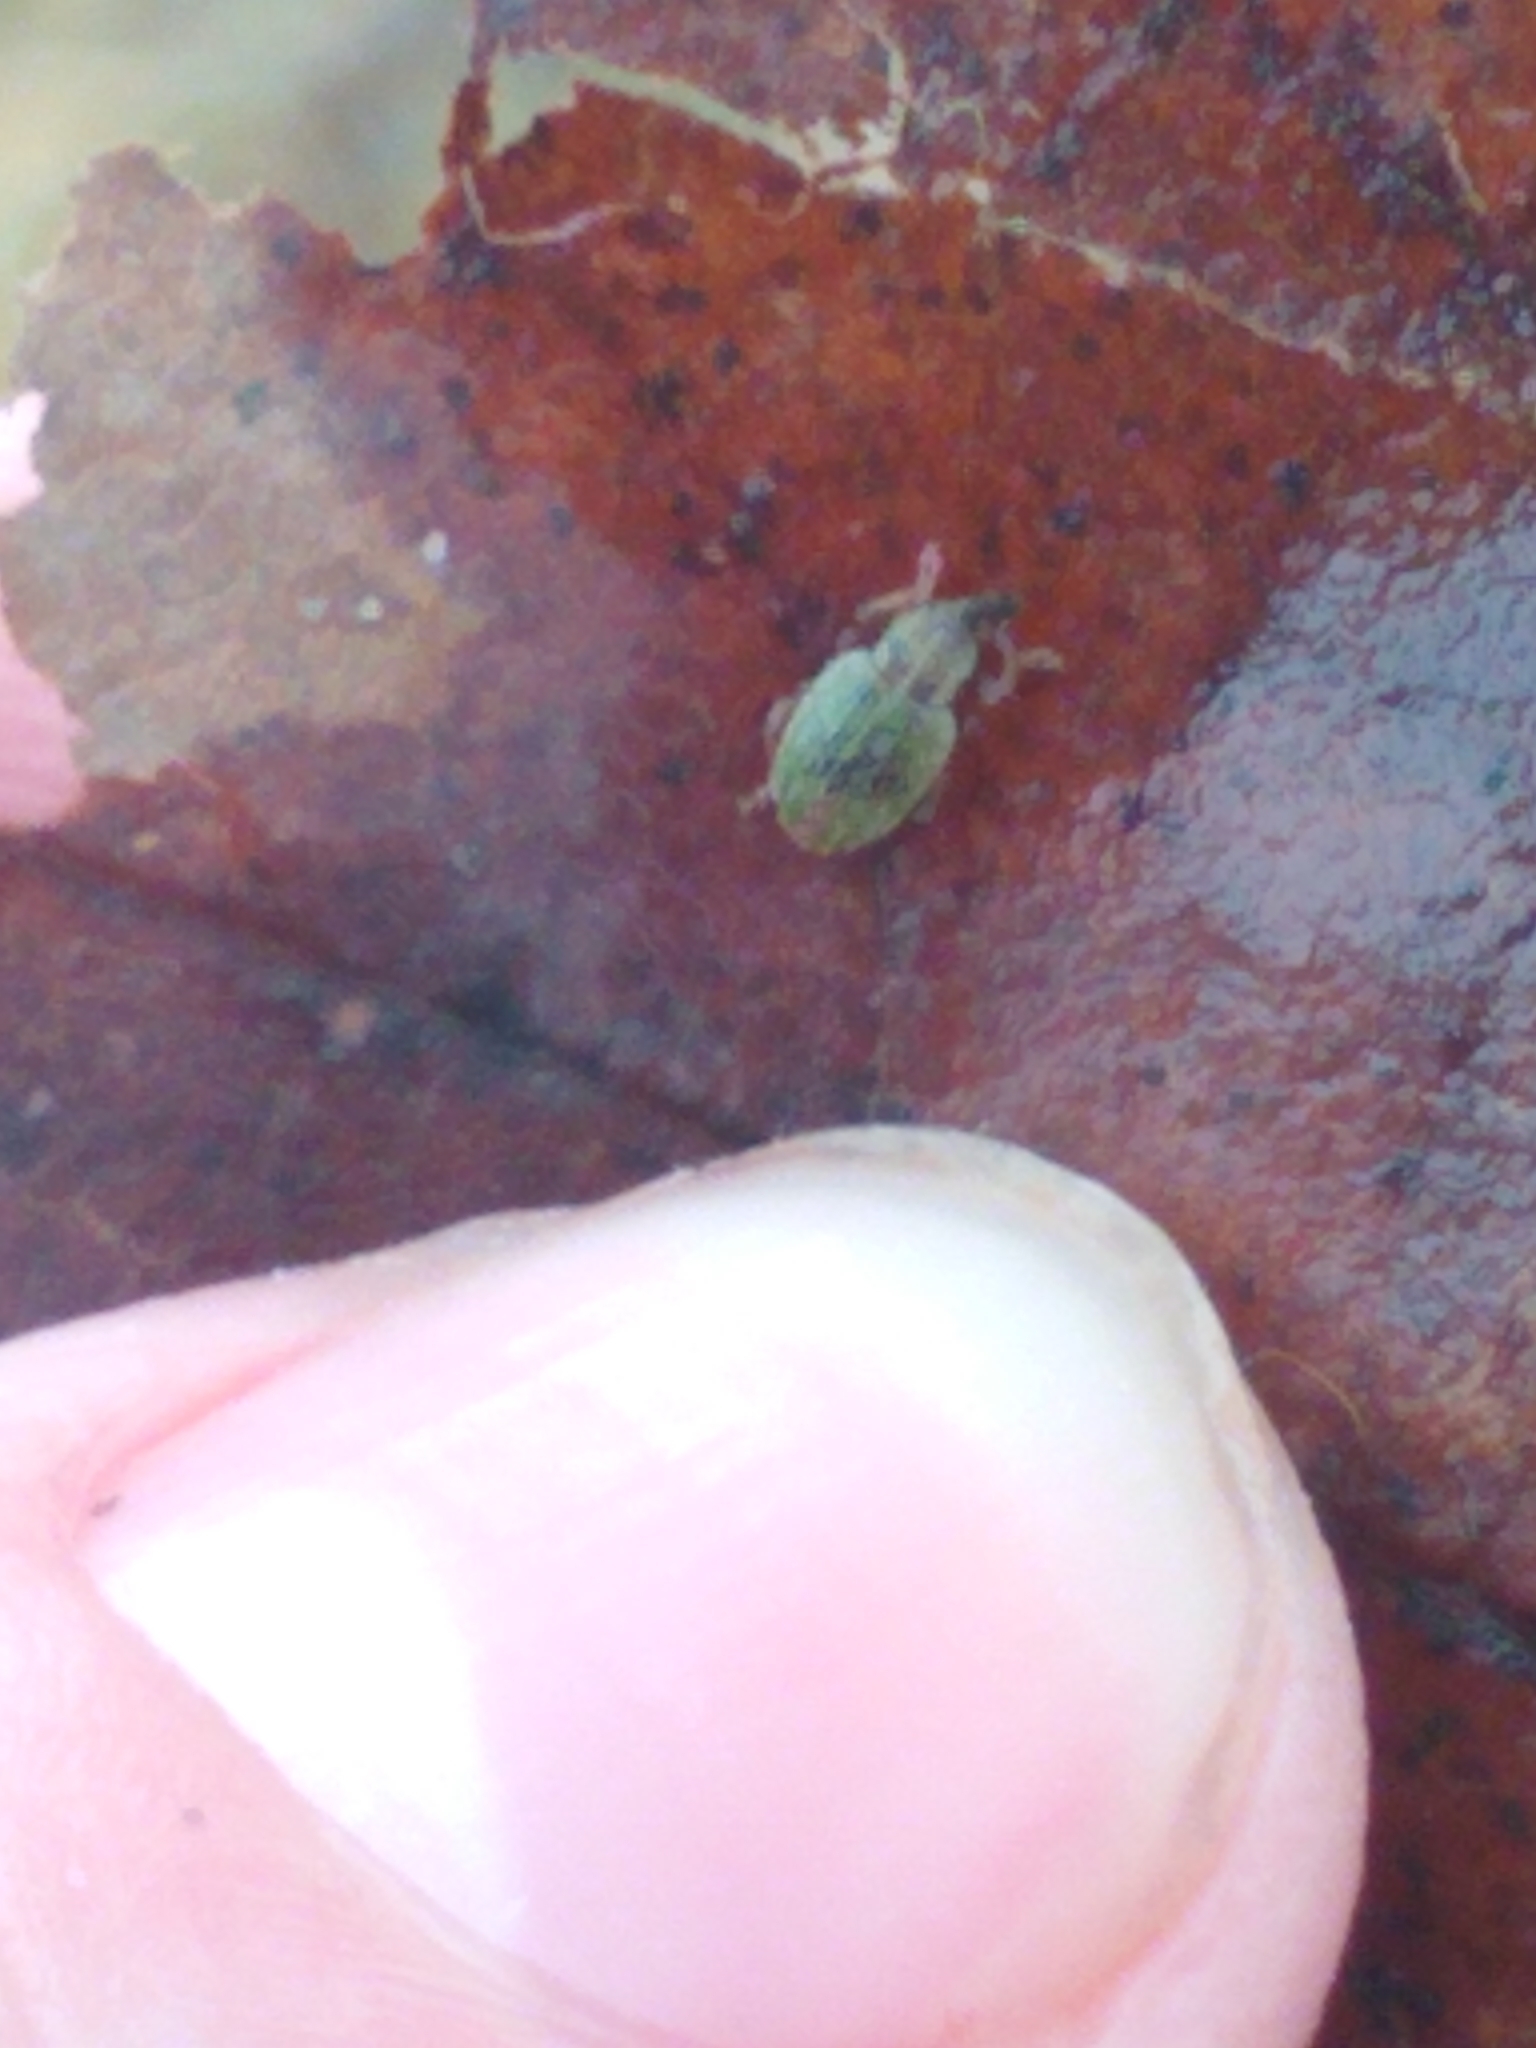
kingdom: Animalia
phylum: Arthropoda
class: Insecta
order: Coleoptera
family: Curculionidae
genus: Hypera
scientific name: Hypera nigrirostris
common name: Black-beaked green weevil
